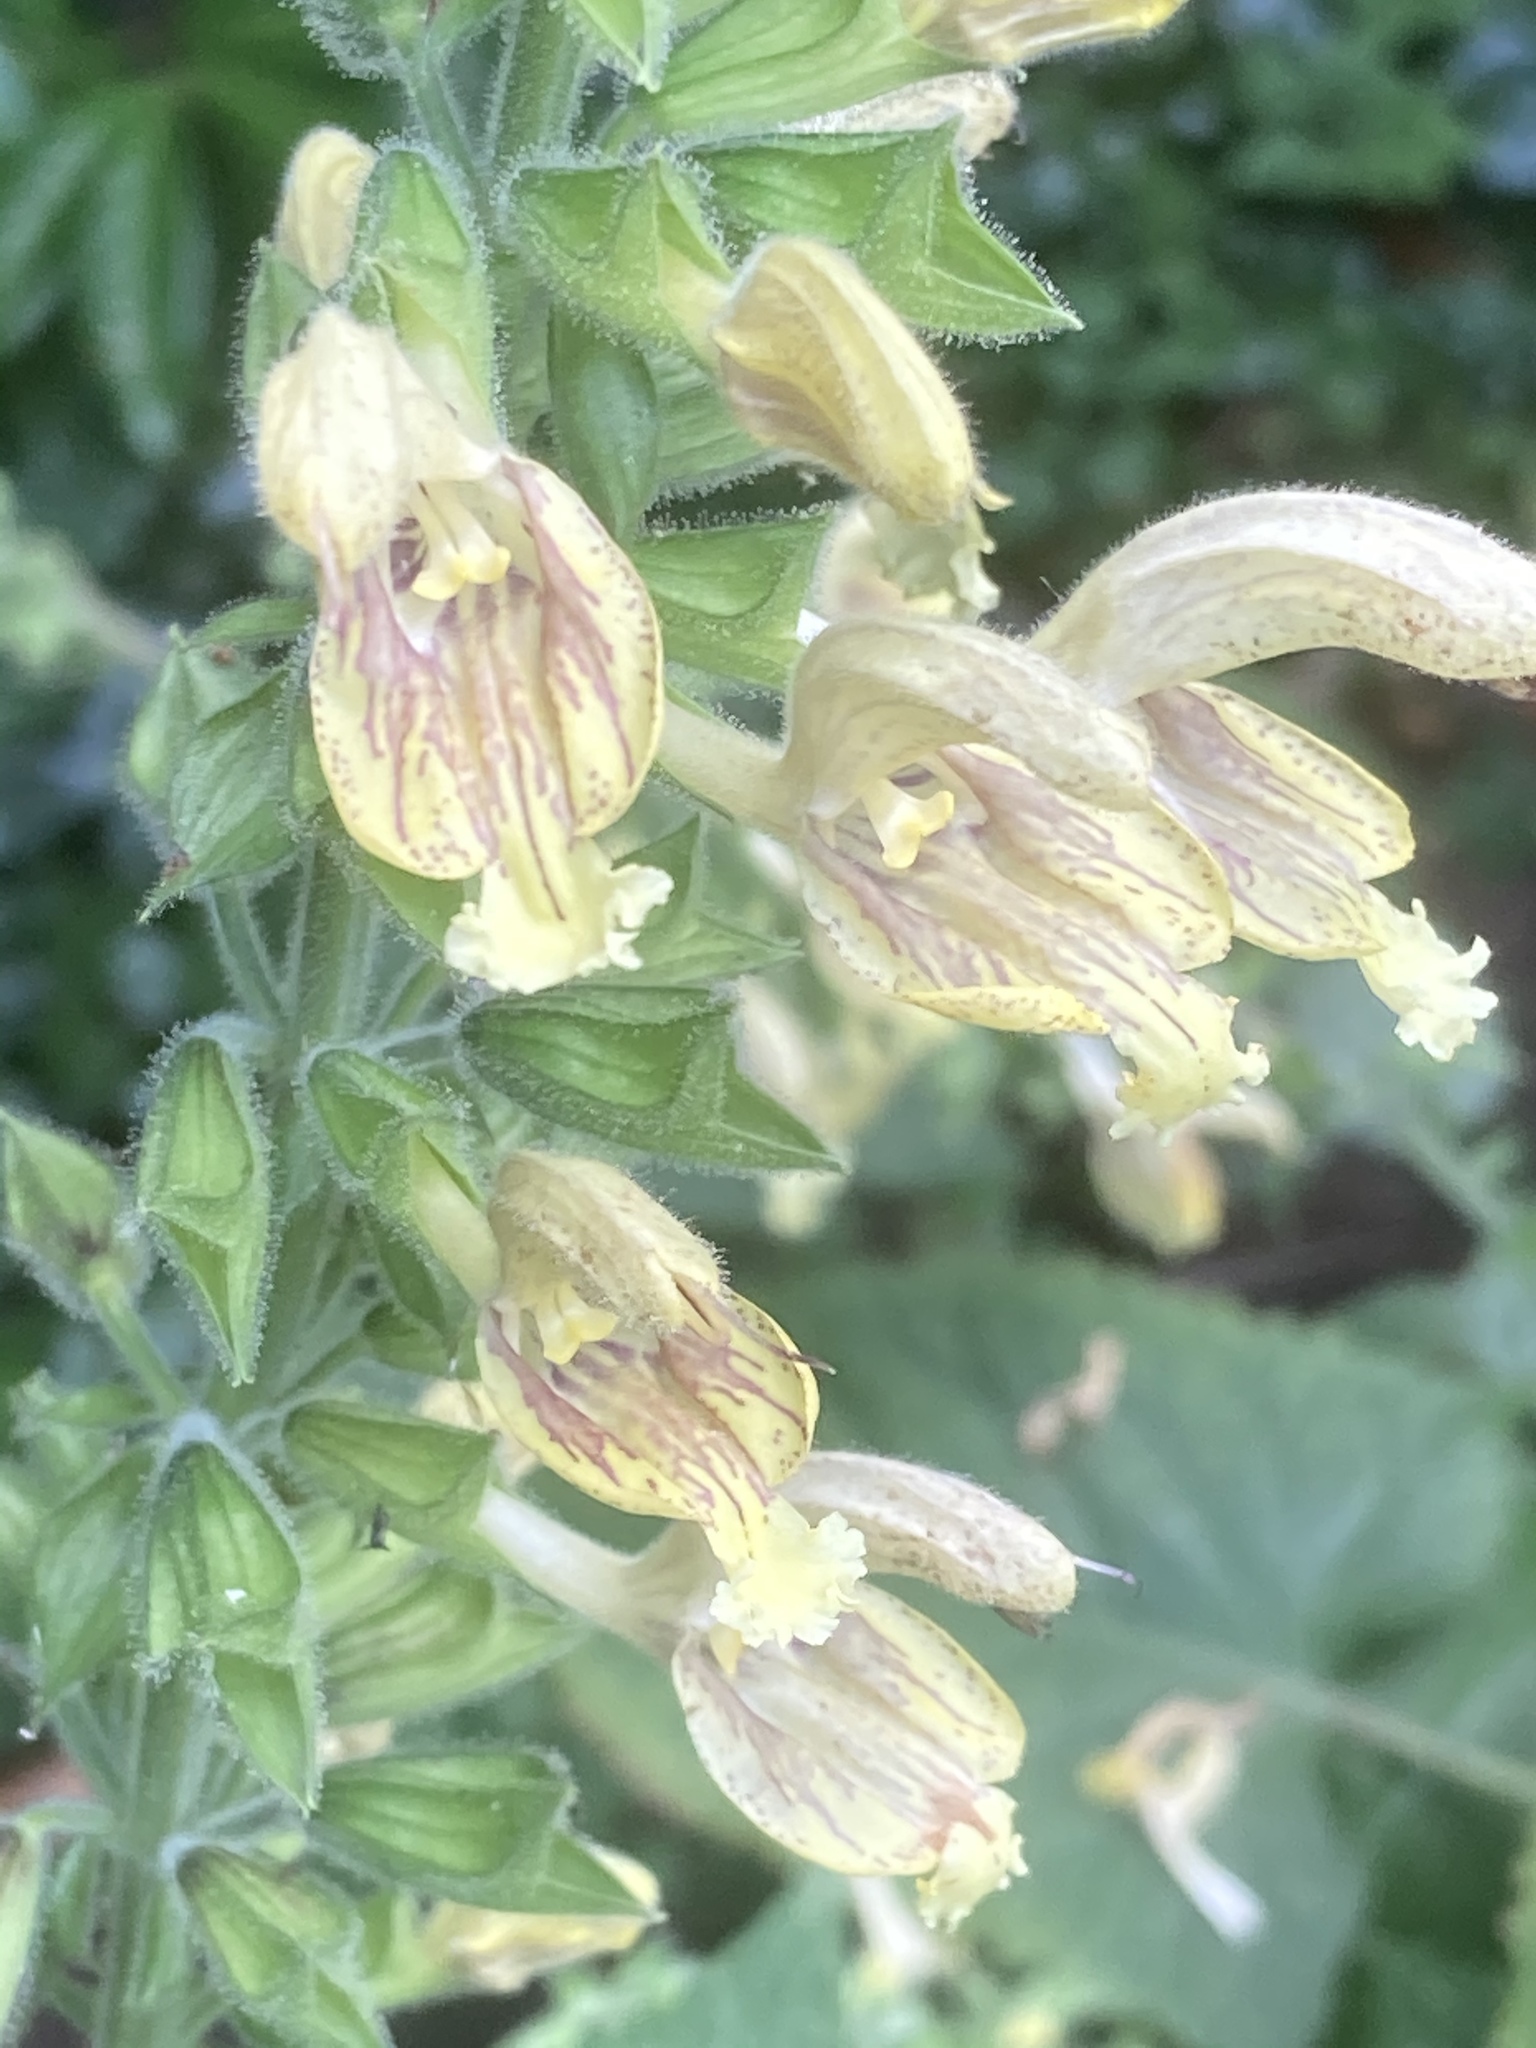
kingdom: Plantae
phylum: Tracheophyta
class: Magnoliopsida
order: Lamiales
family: Lamiaceae
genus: Salvia
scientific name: Salvia glutinosa
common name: Sticky clary
